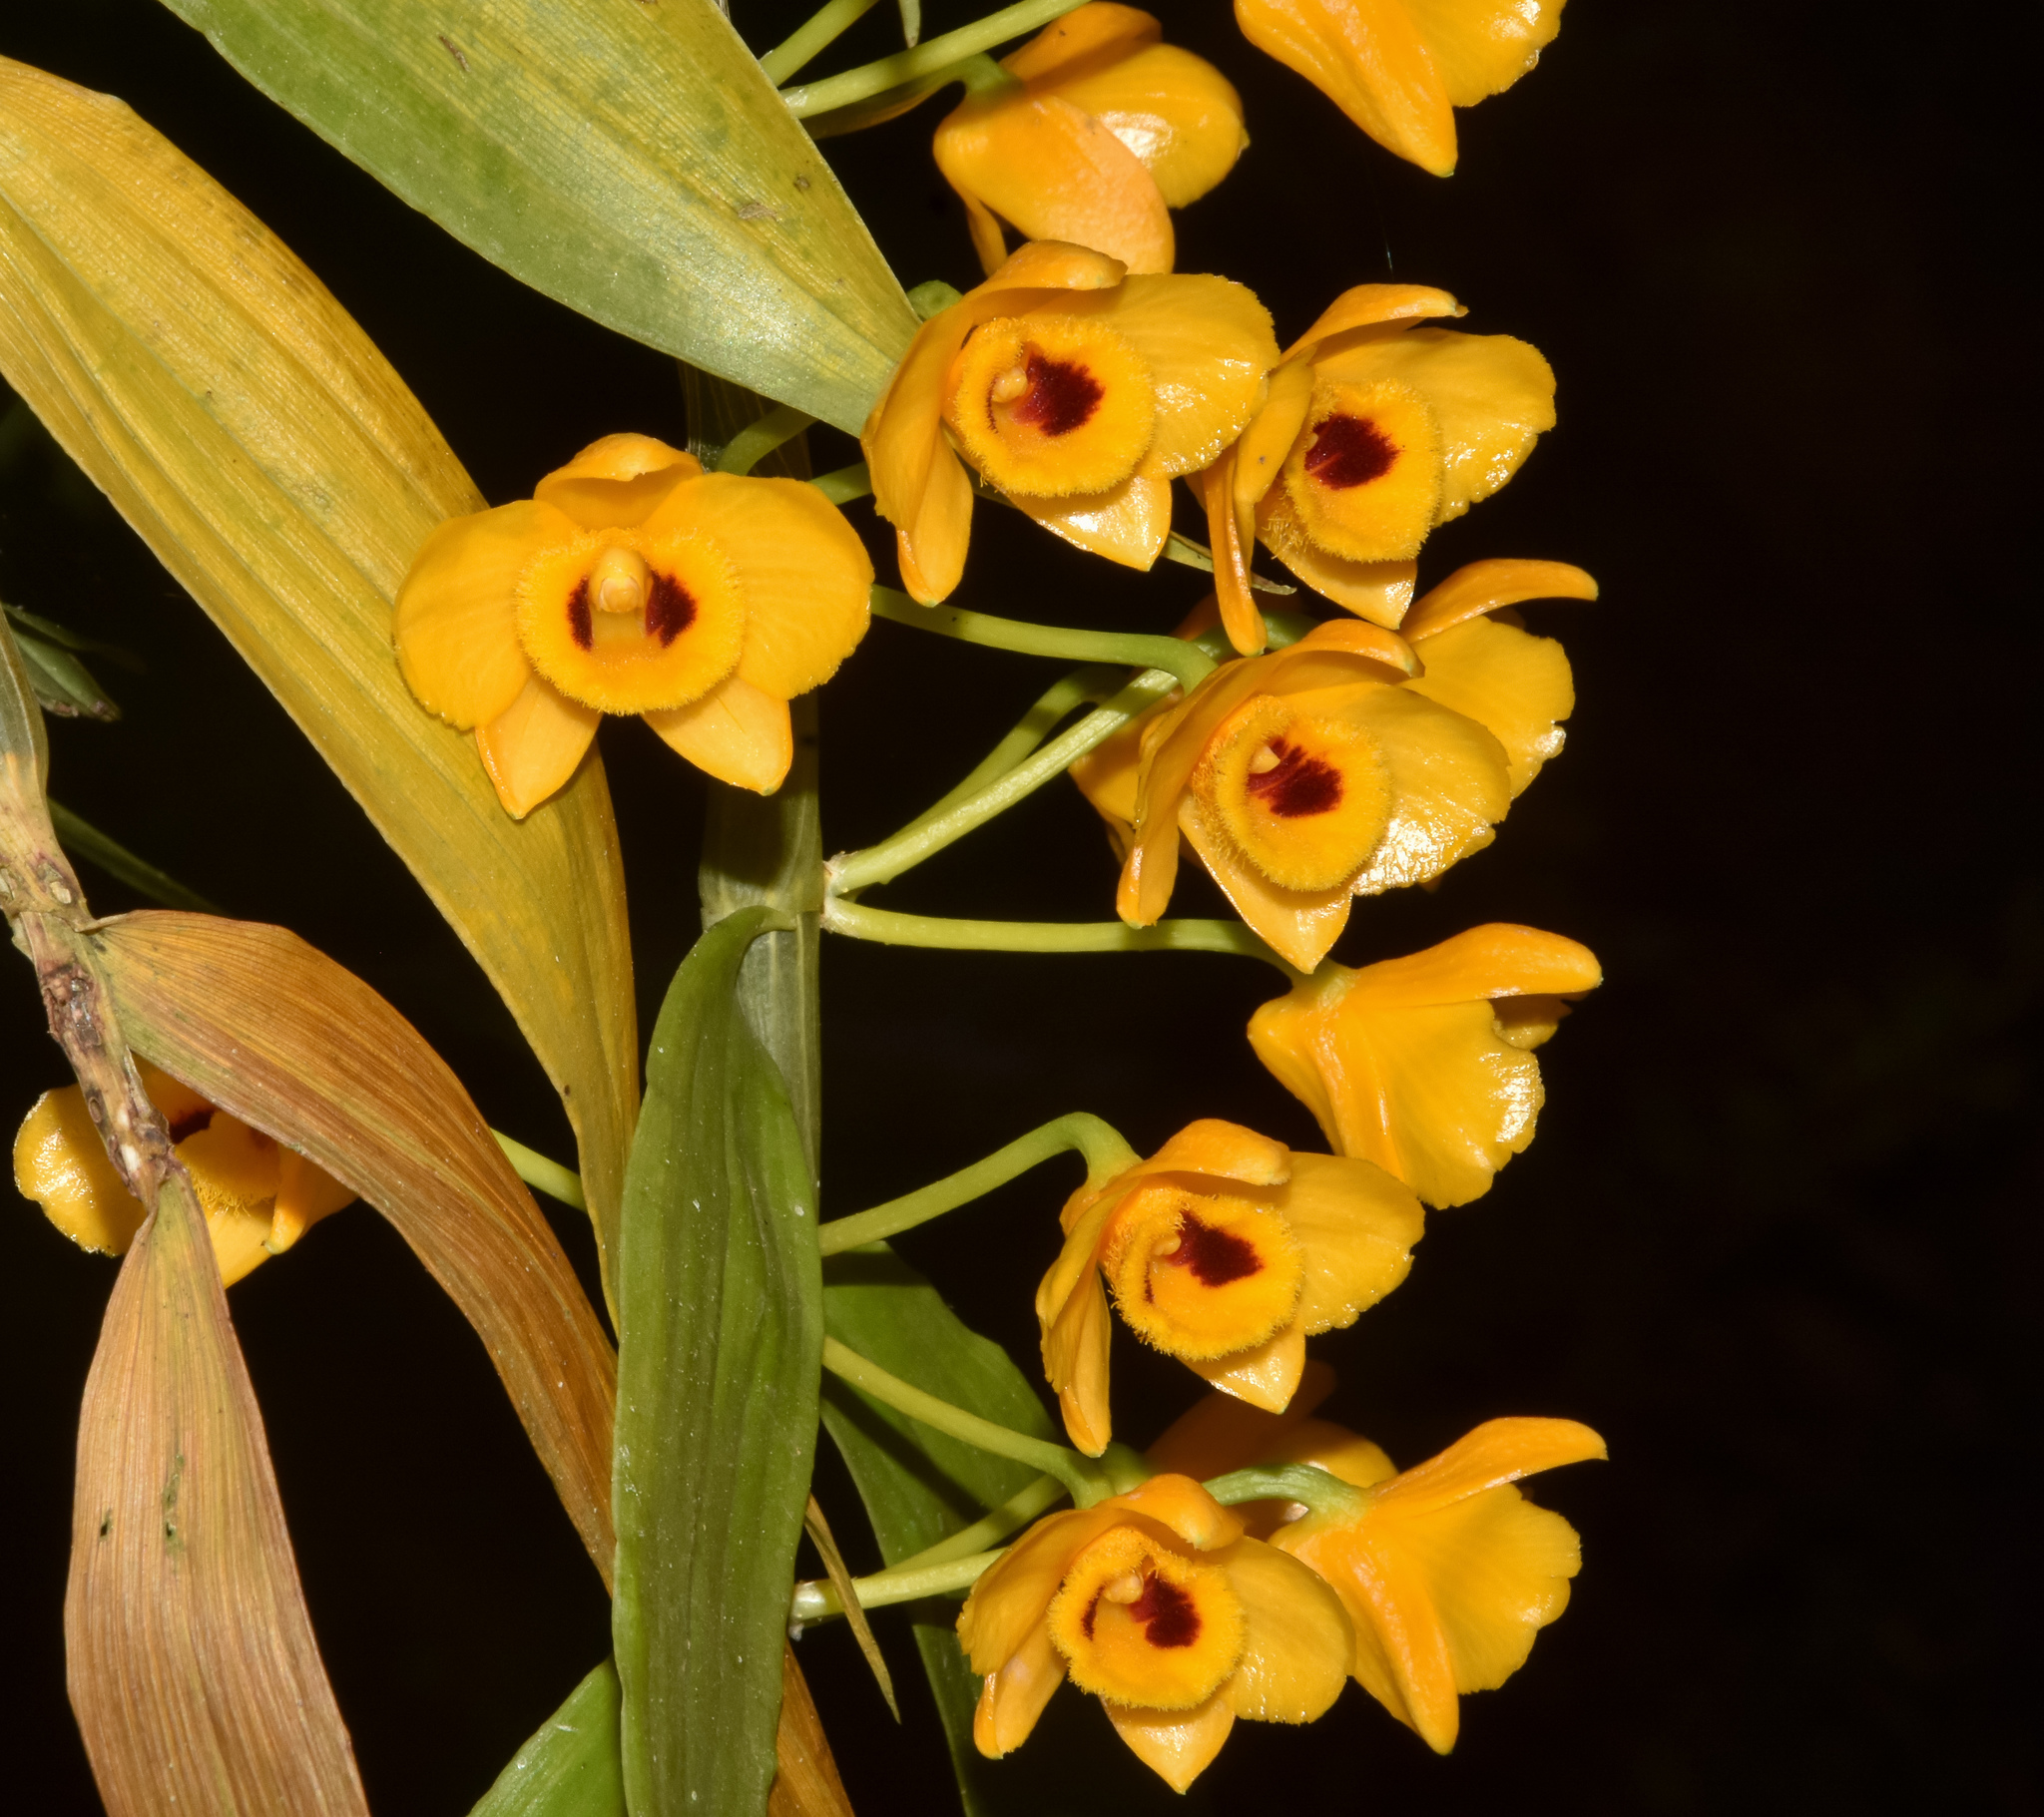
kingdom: Plantae
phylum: Tracheophyta
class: Liliopsida
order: Asparagales
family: Orchidaceae
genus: Dendrobium
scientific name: Dendrobium chrysanthum
